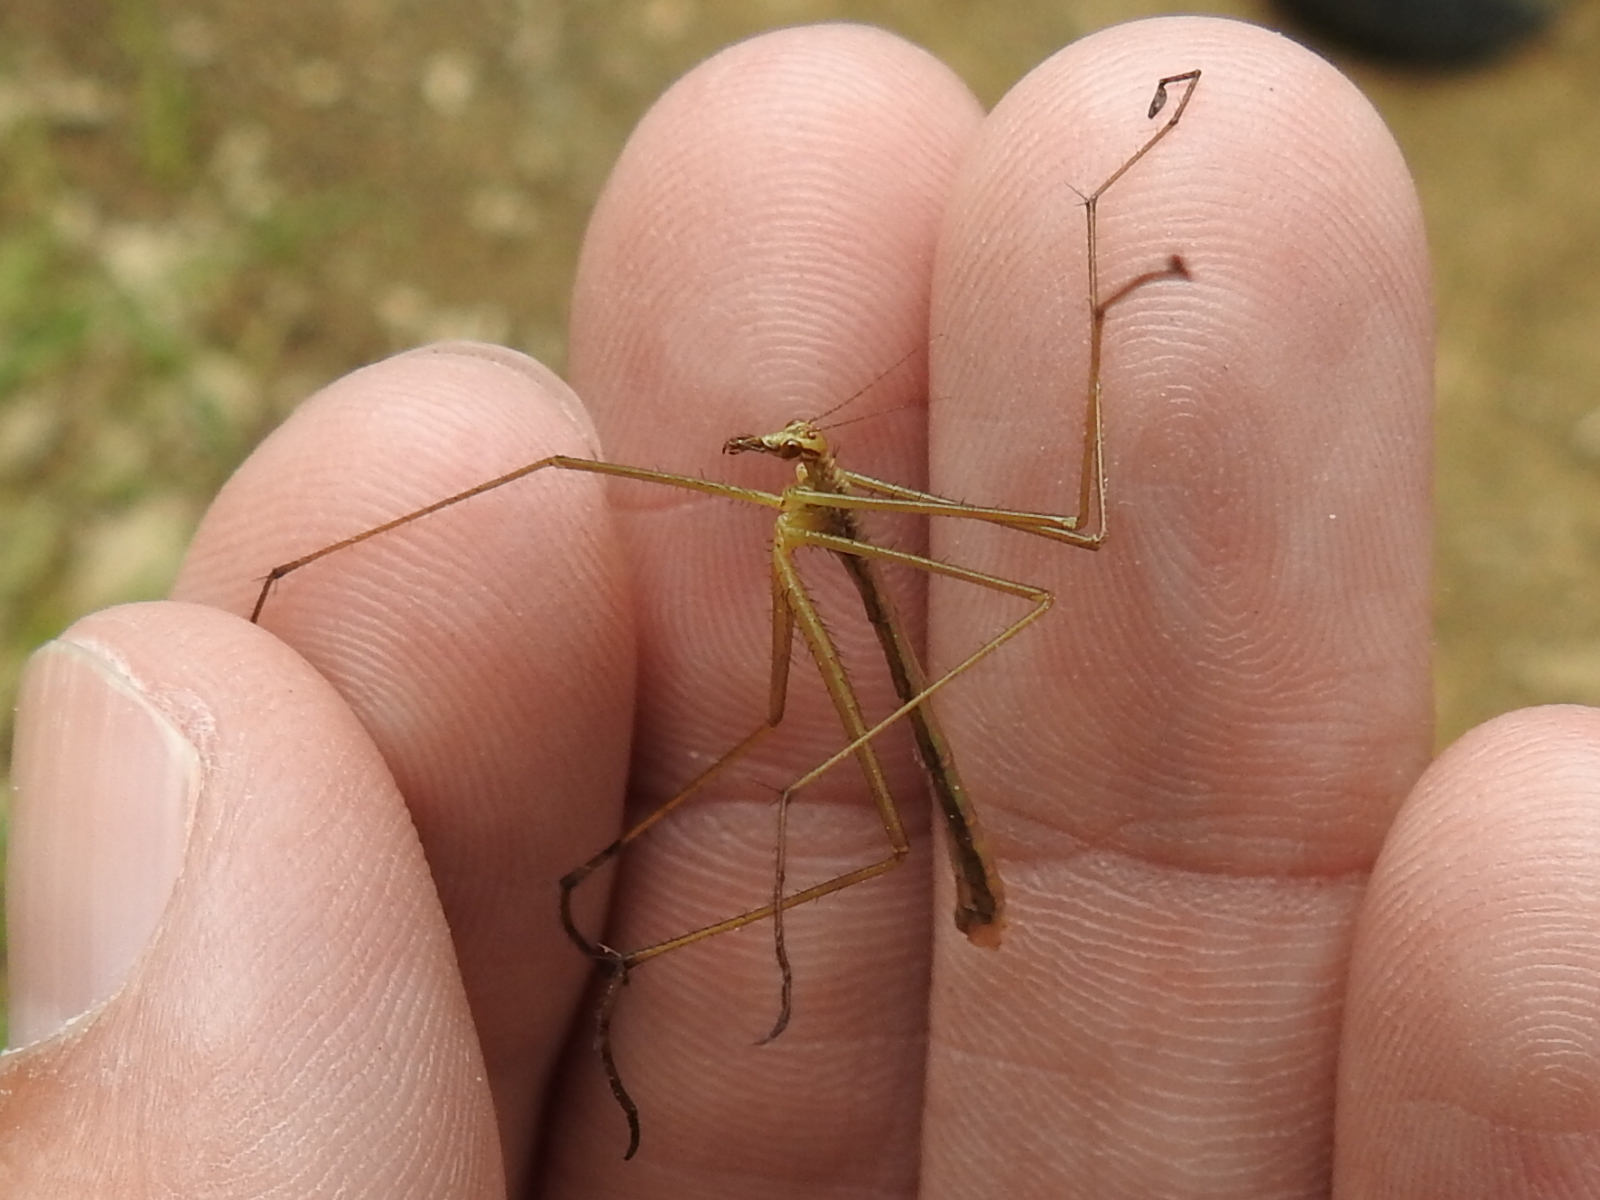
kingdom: Animalia
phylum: Arthropoda
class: Insecta
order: Mecoptera
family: Bittacidae
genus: Apterobittacus
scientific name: Apterobittacus apterus
